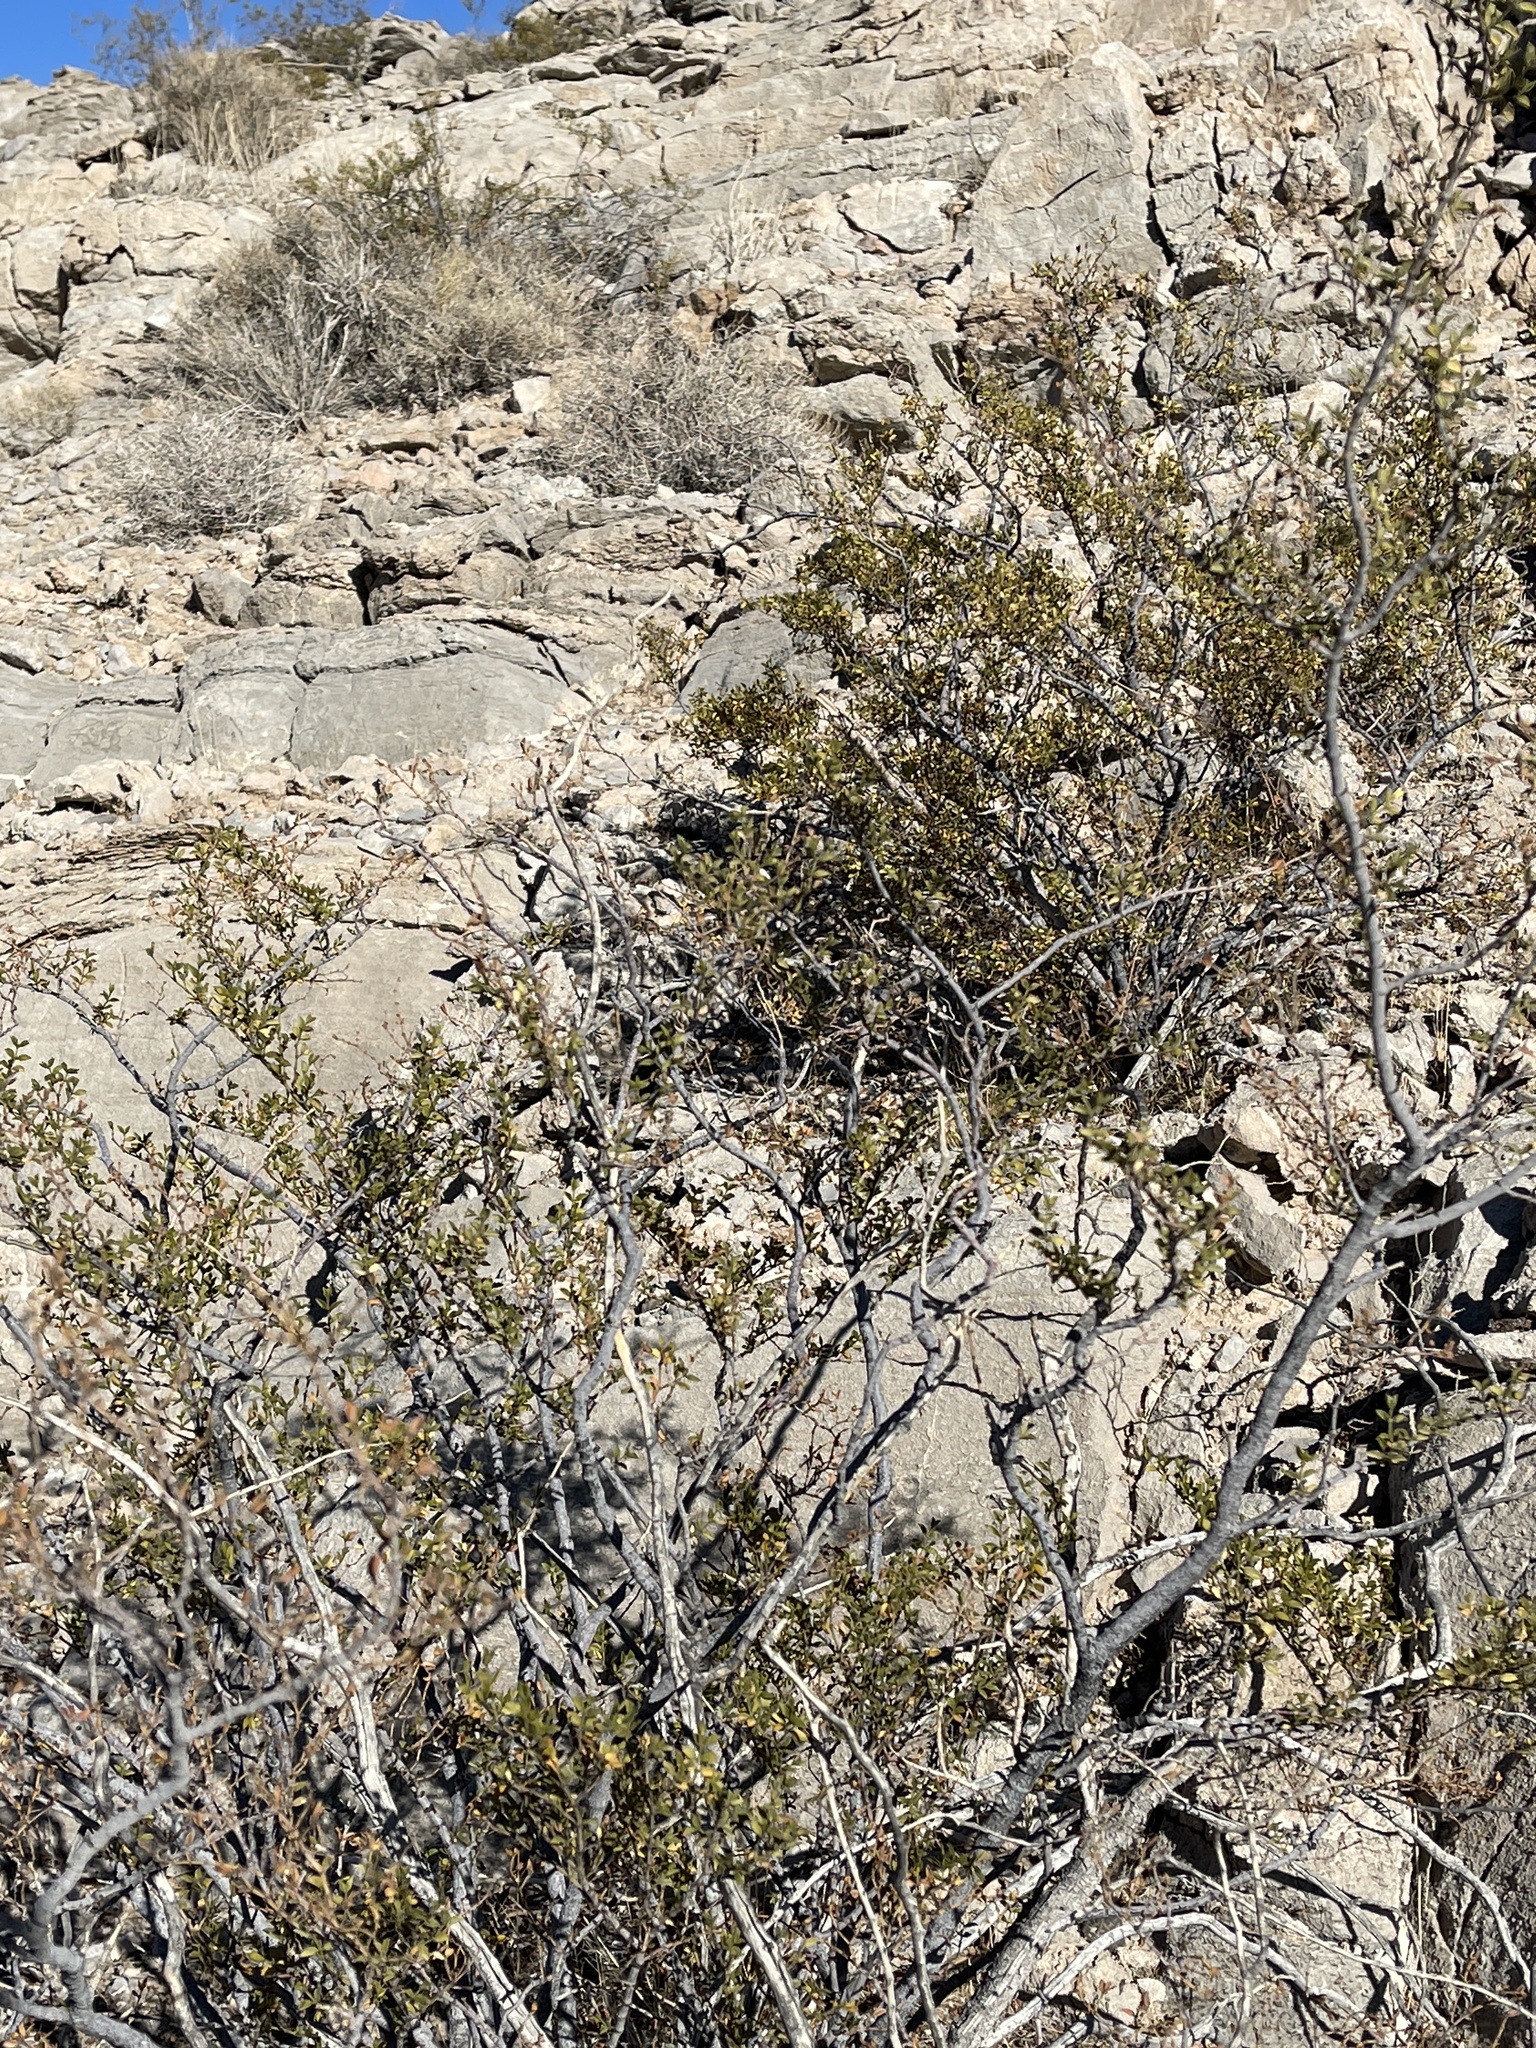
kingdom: Plantae
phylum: Tracheophyta
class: Magnoliopsida
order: Zygophyllales
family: Zygophyllaceae
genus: Larrea
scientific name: Larrea tridentata
